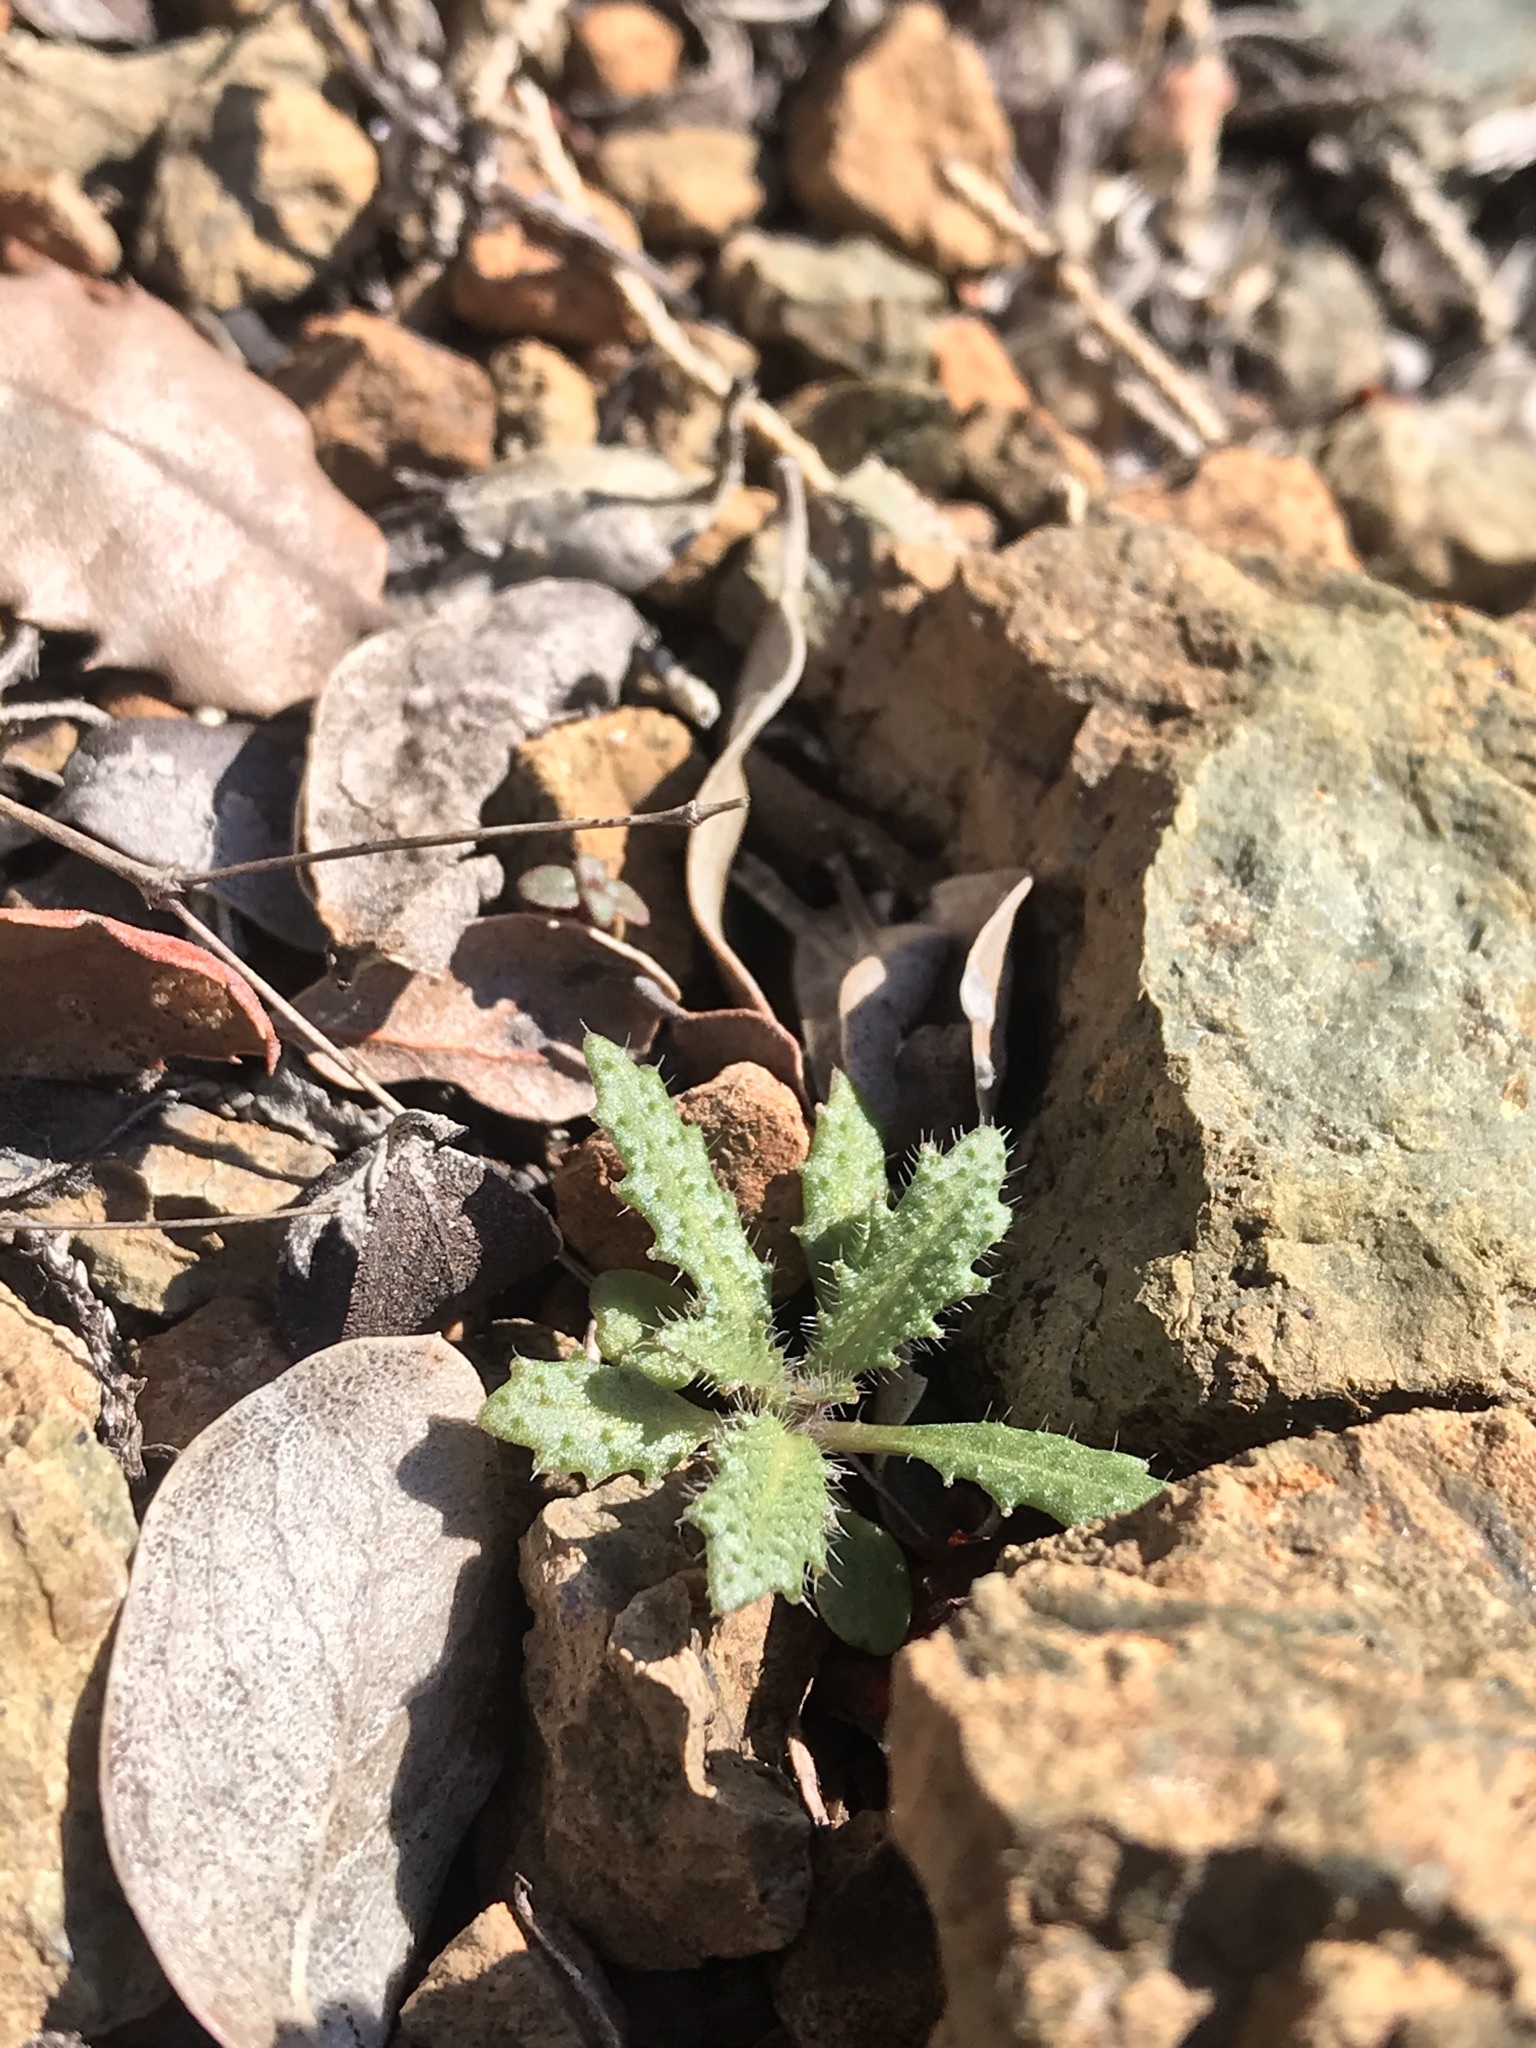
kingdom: Plantae
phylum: Tracheophyta
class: Magnoliopsida
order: Brassicales
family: Brassicaceae
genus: Streptanthus
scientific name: Streptanthus glandulosus
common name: Jewel-flower
